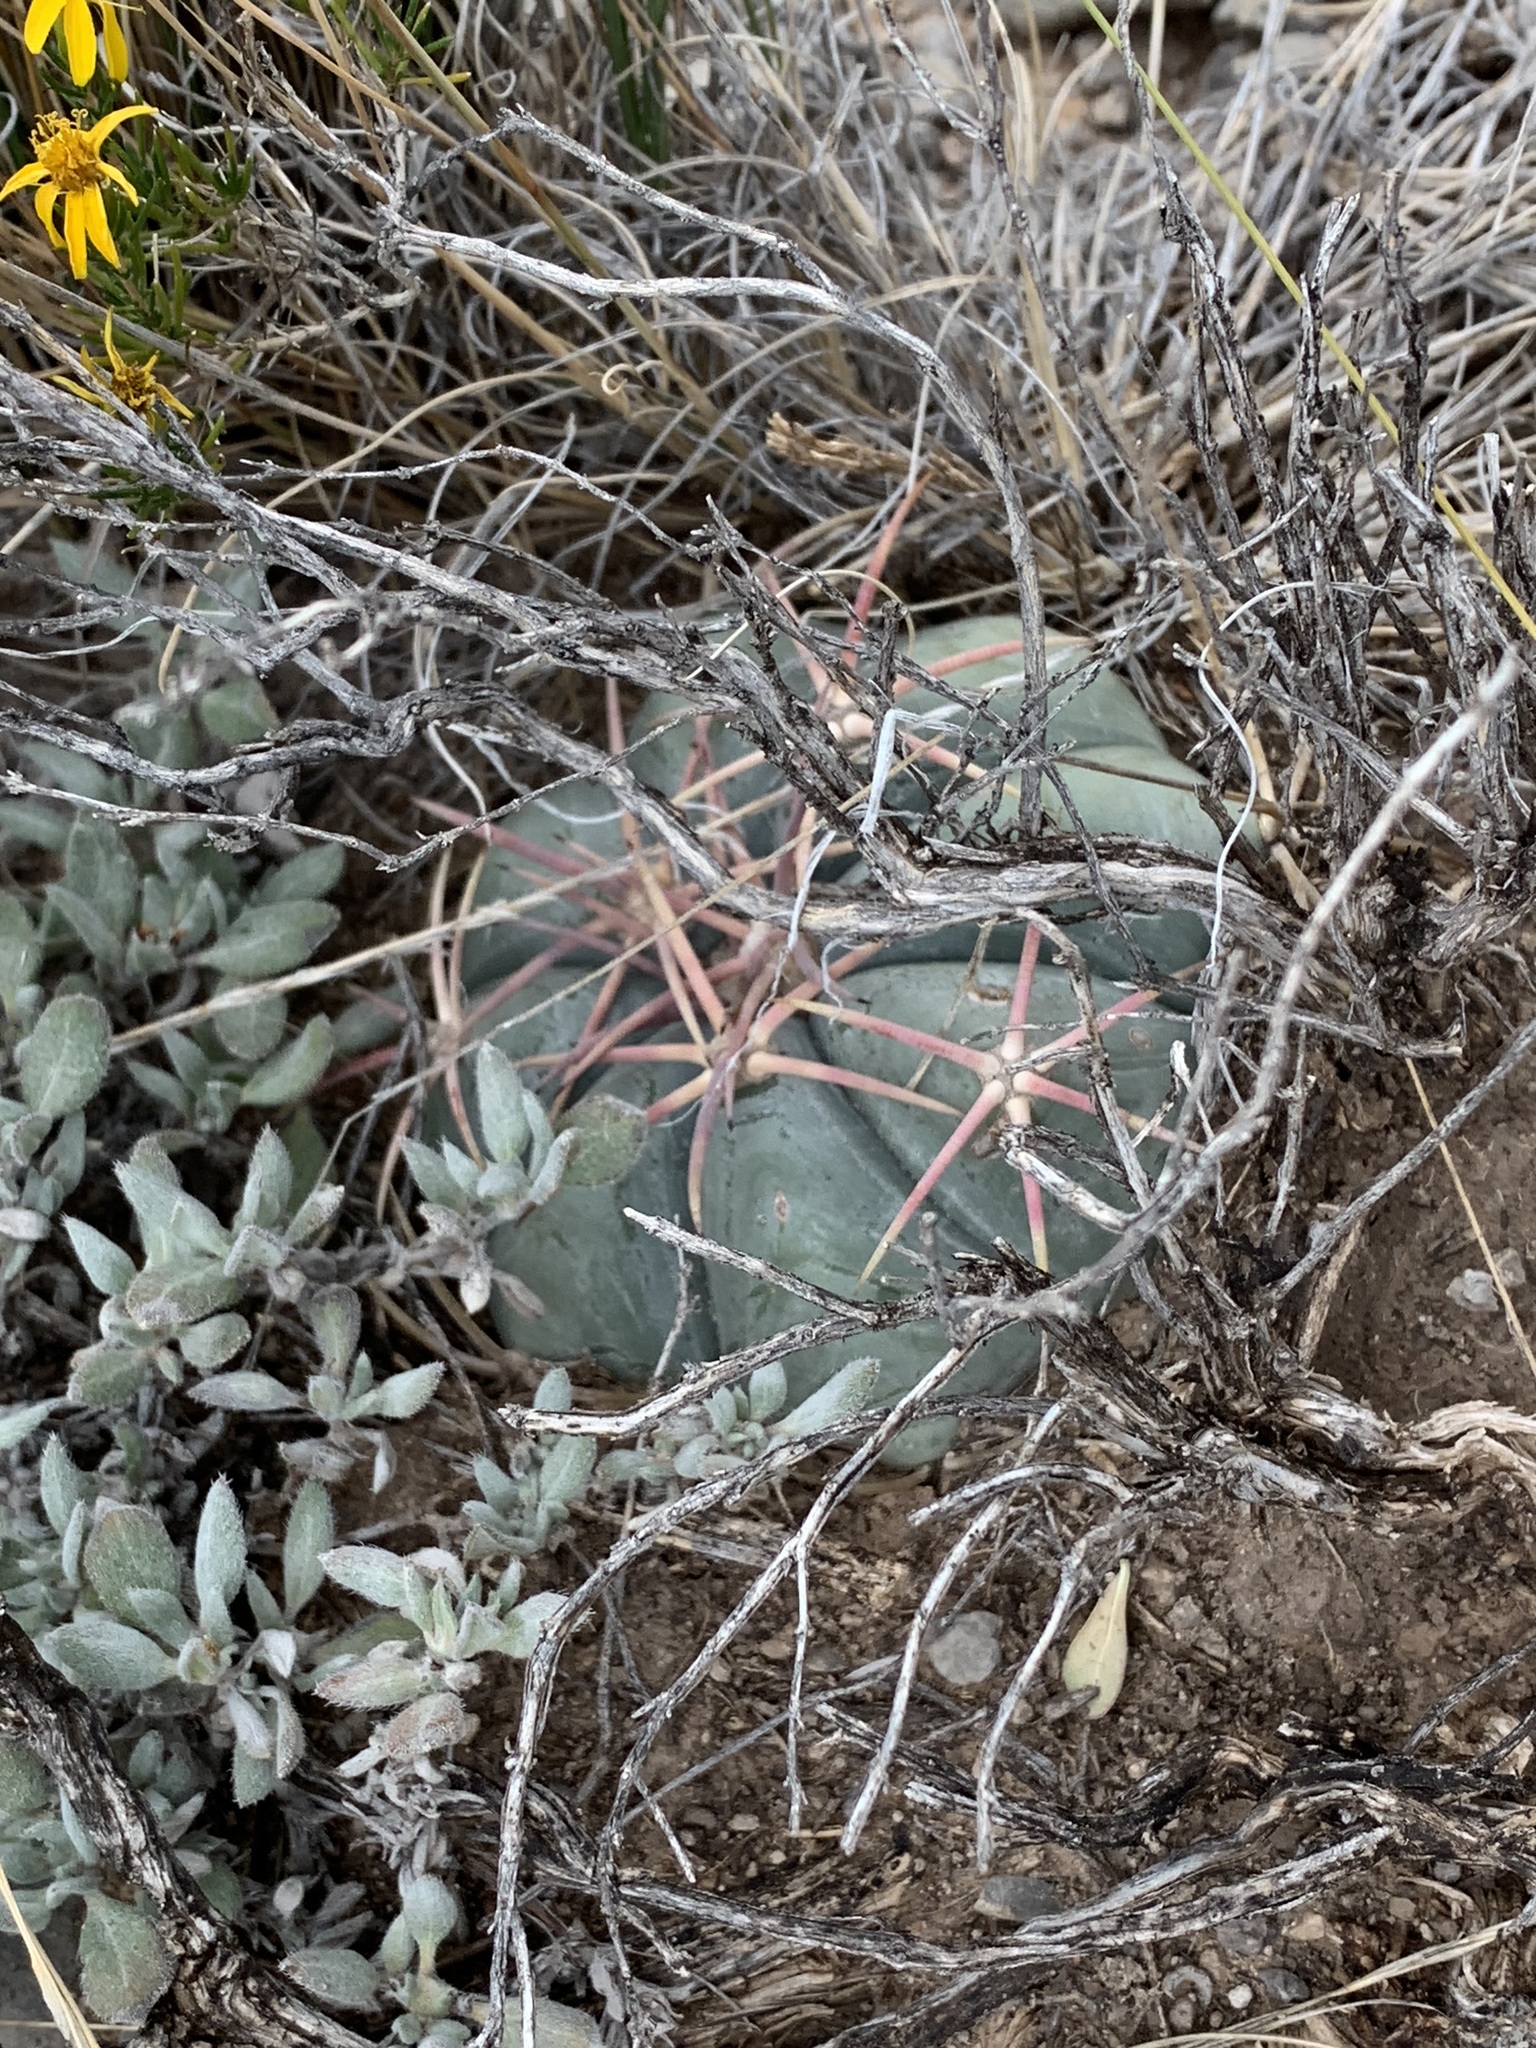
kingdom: Plantae
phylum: Tracheophyta
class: Magnoliopsida
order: Caryophyllales
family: Cactaceae
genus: Echinocactus
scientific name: Echinocactus horizonthalonius
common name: Devilshead
